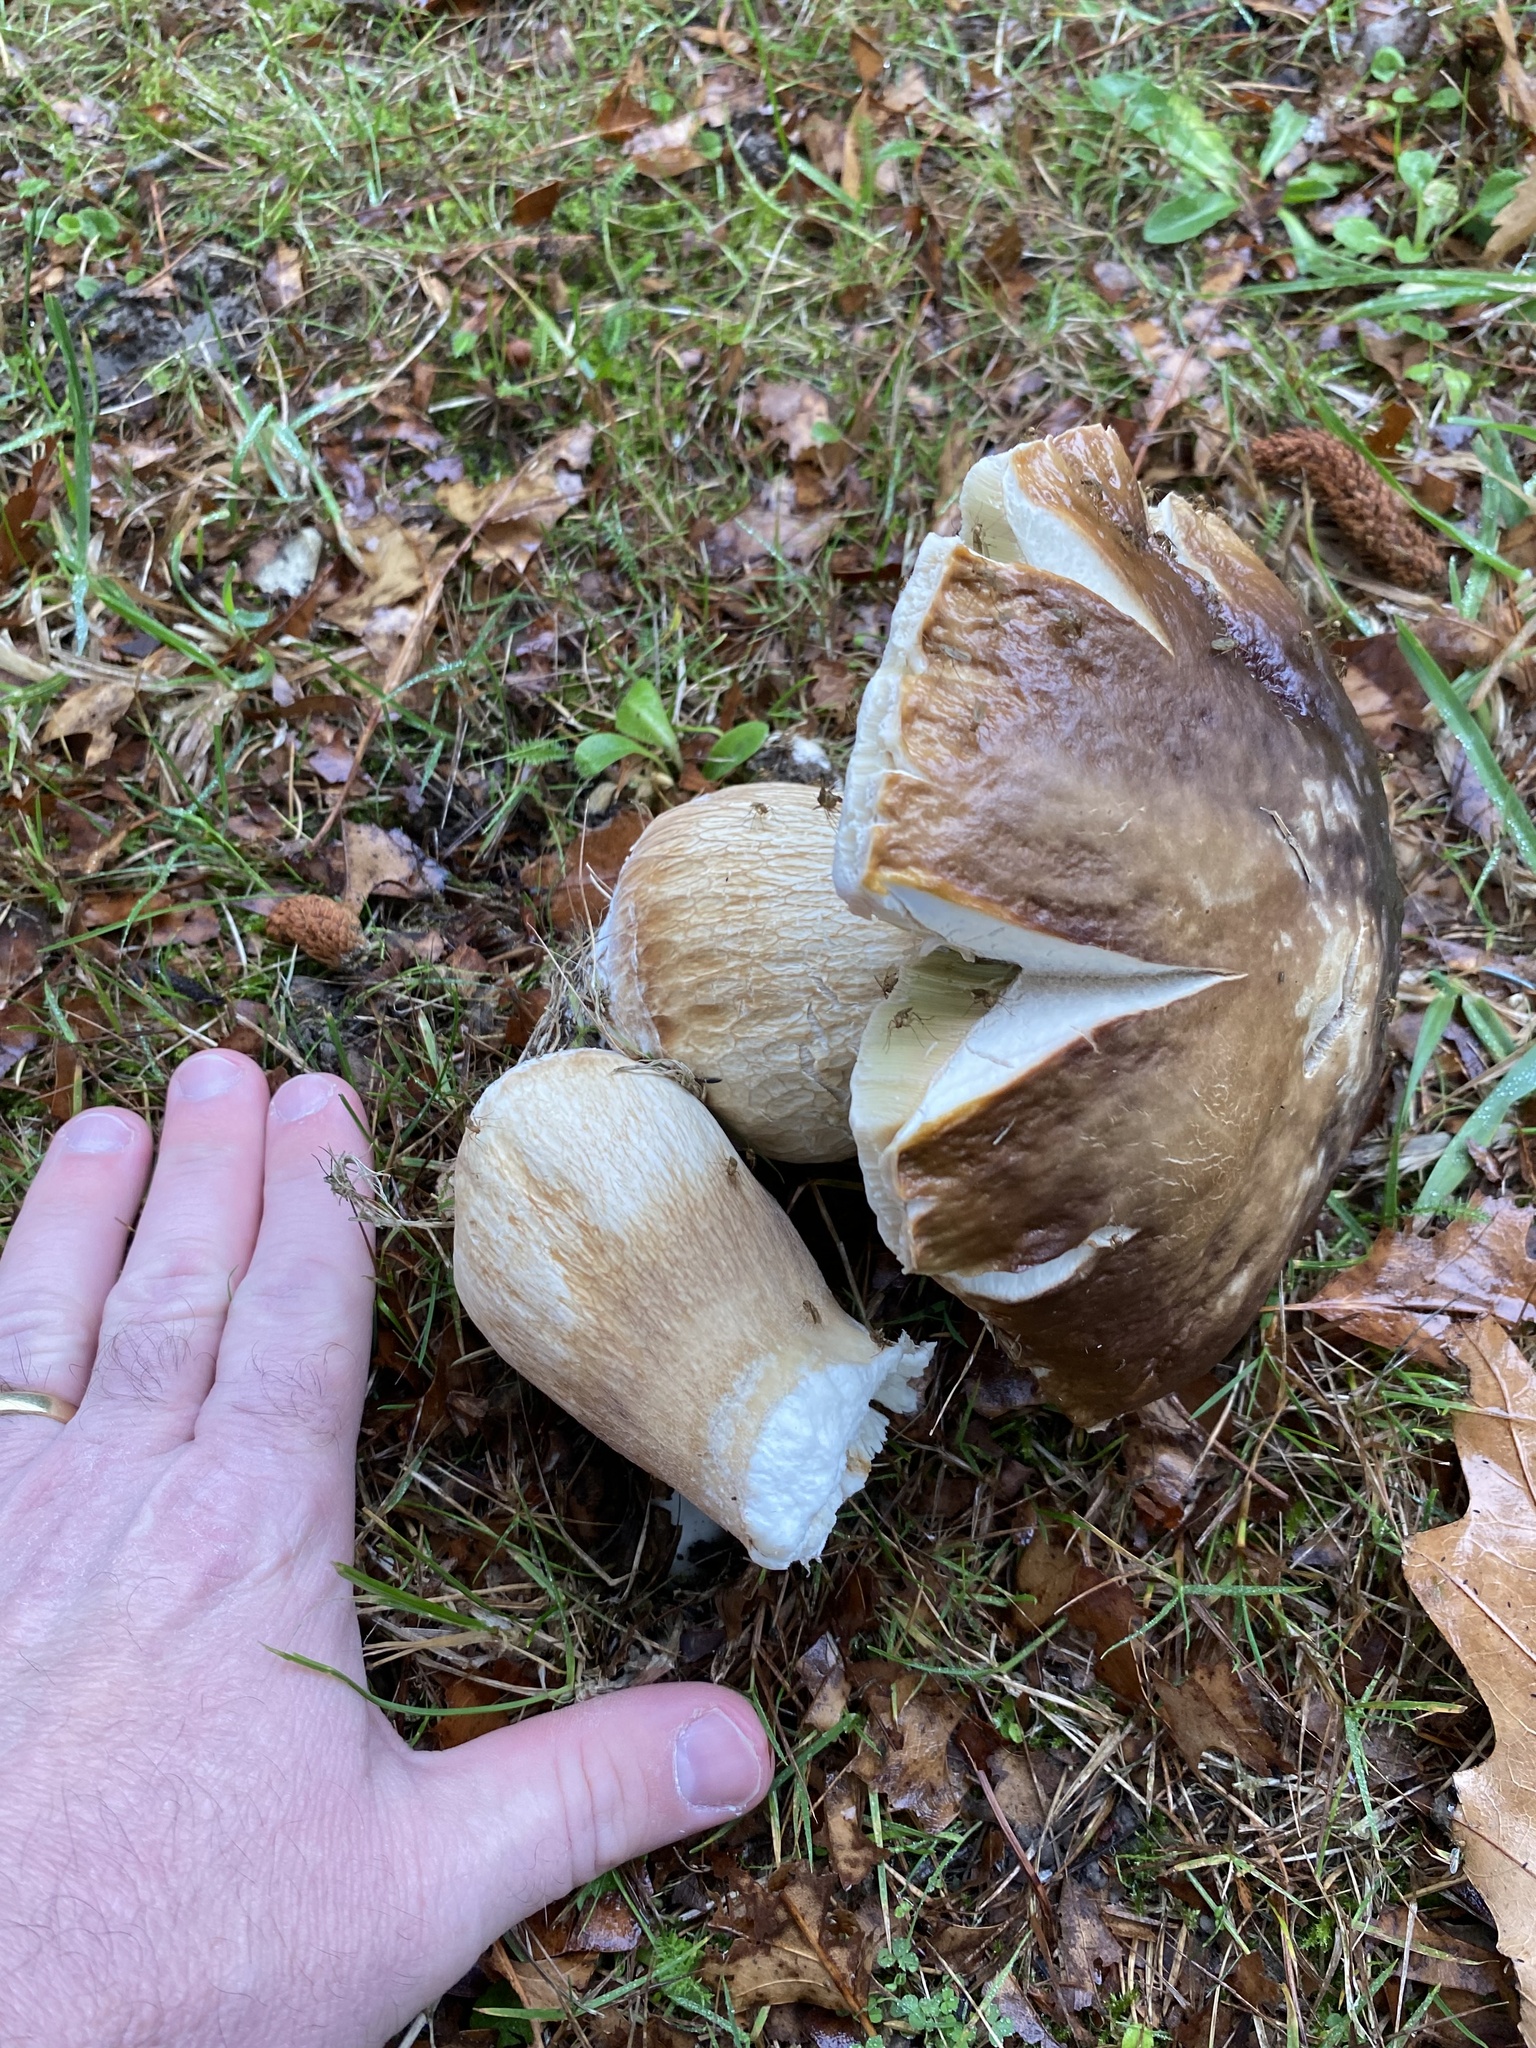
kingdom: Fungi
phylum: Basidiomycota
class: Agaricomycetes
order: Boletales
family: Boletaceae
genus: Boletus
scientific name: Boletus edulis
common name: Cep
